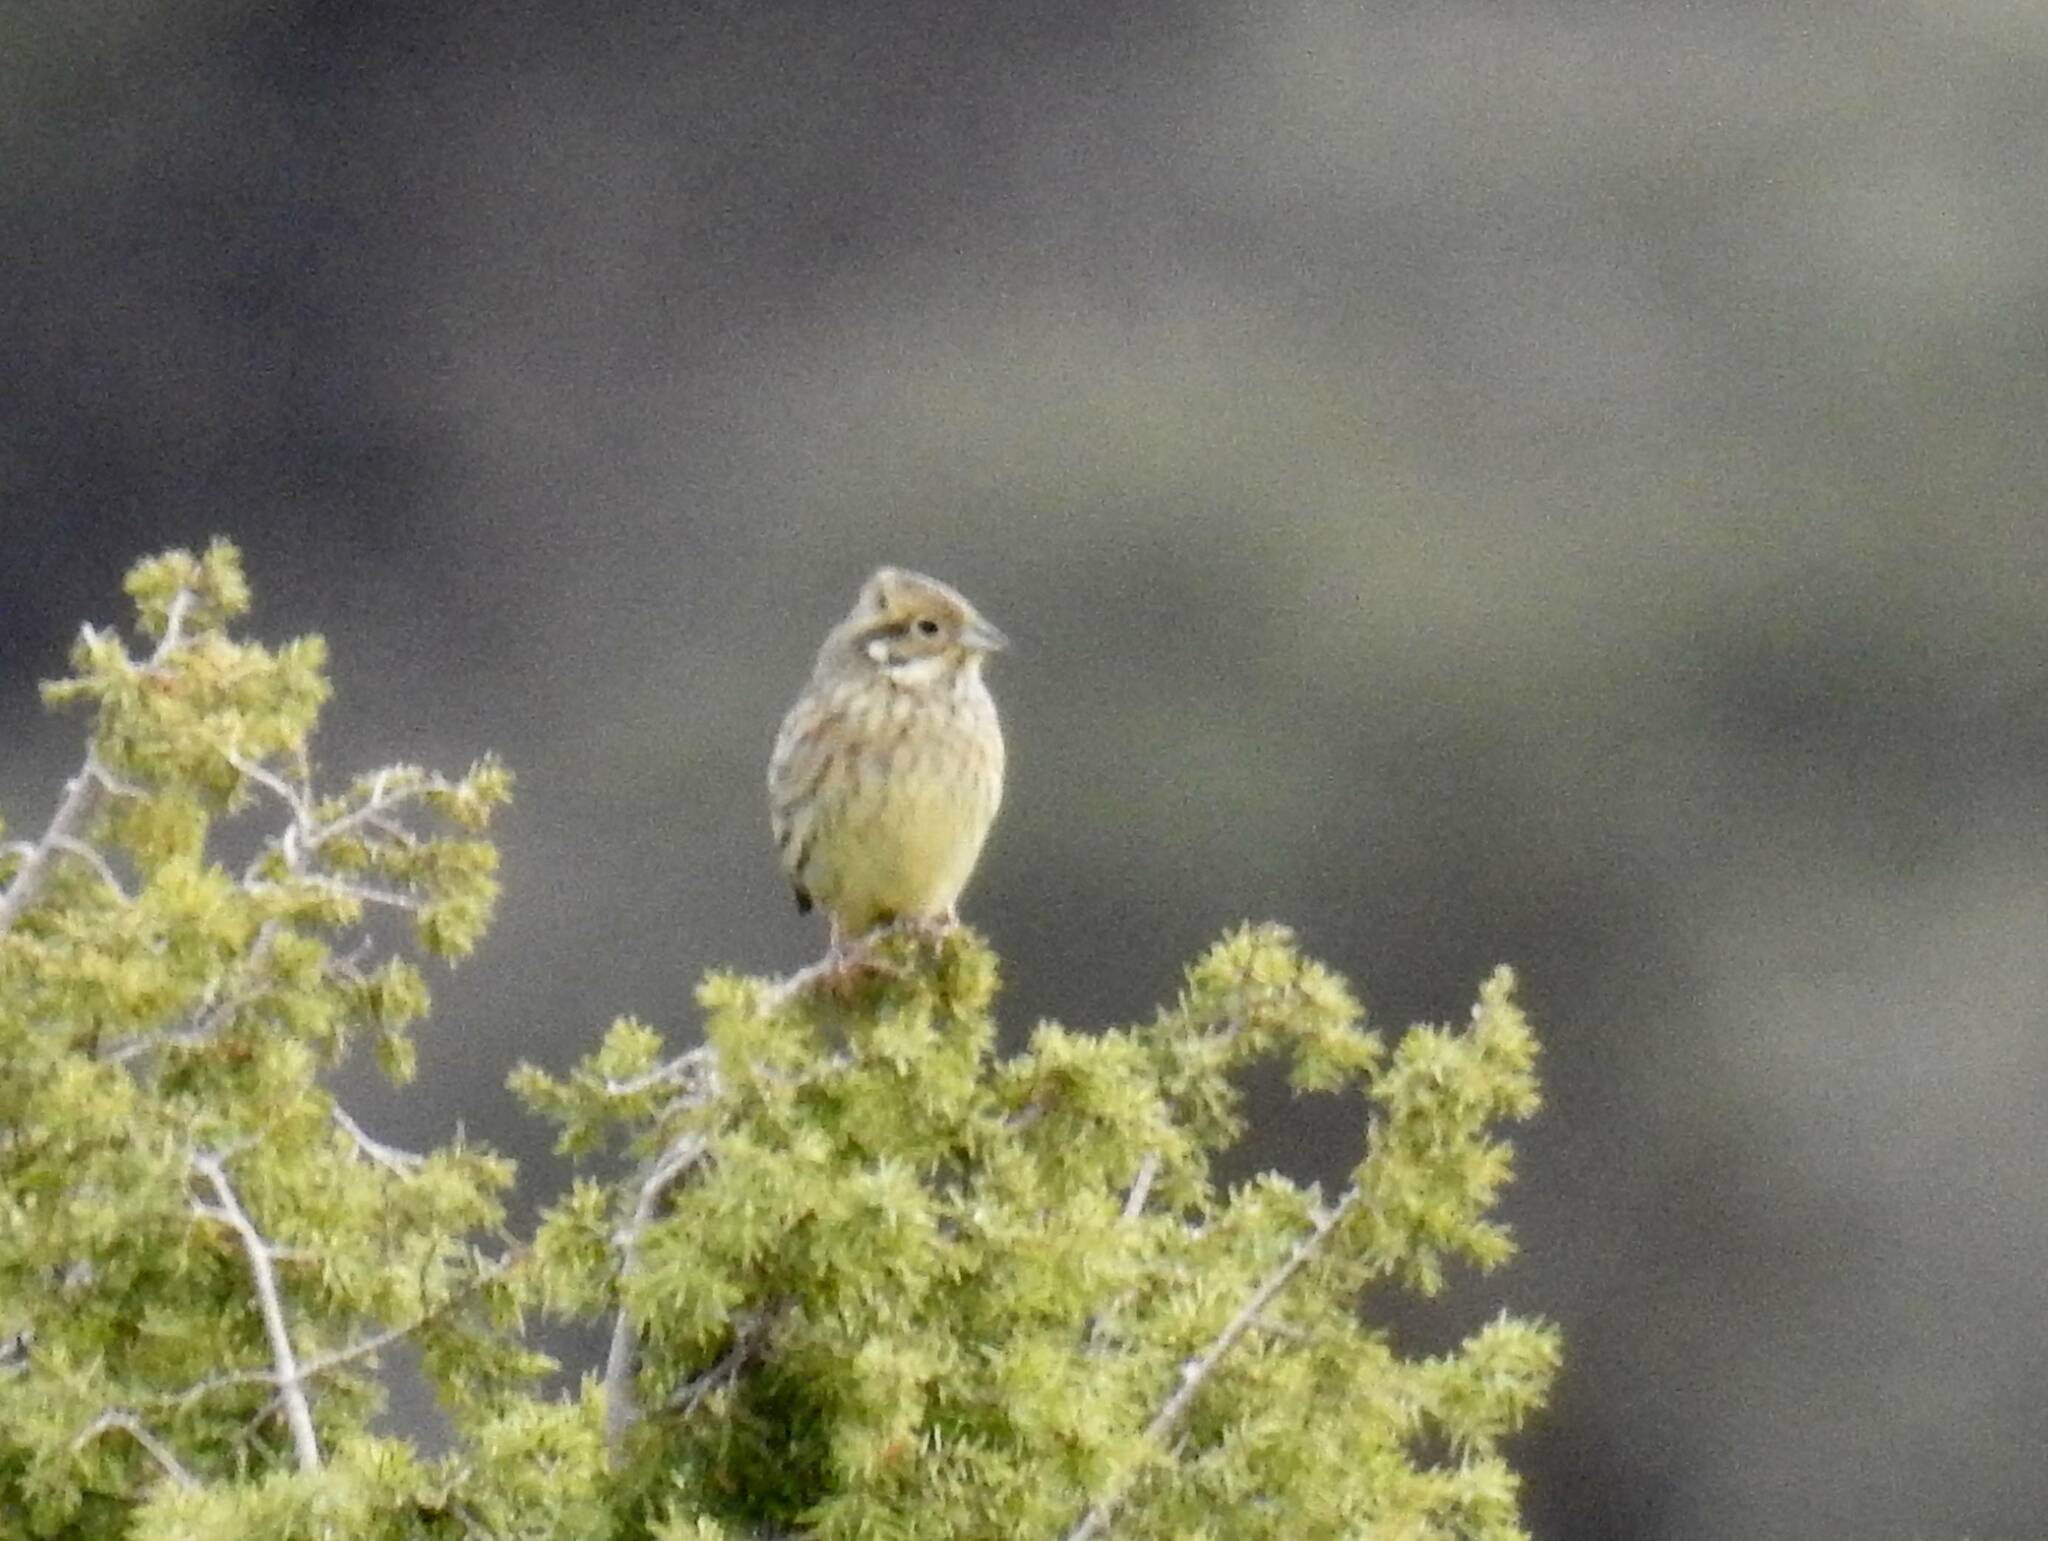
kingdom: Animalia
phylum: Chordata
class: Aves
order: Passeriformes
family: Emberizidae
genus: Emberiza
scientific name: Emberiza cirlus
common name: Cirl bunting
